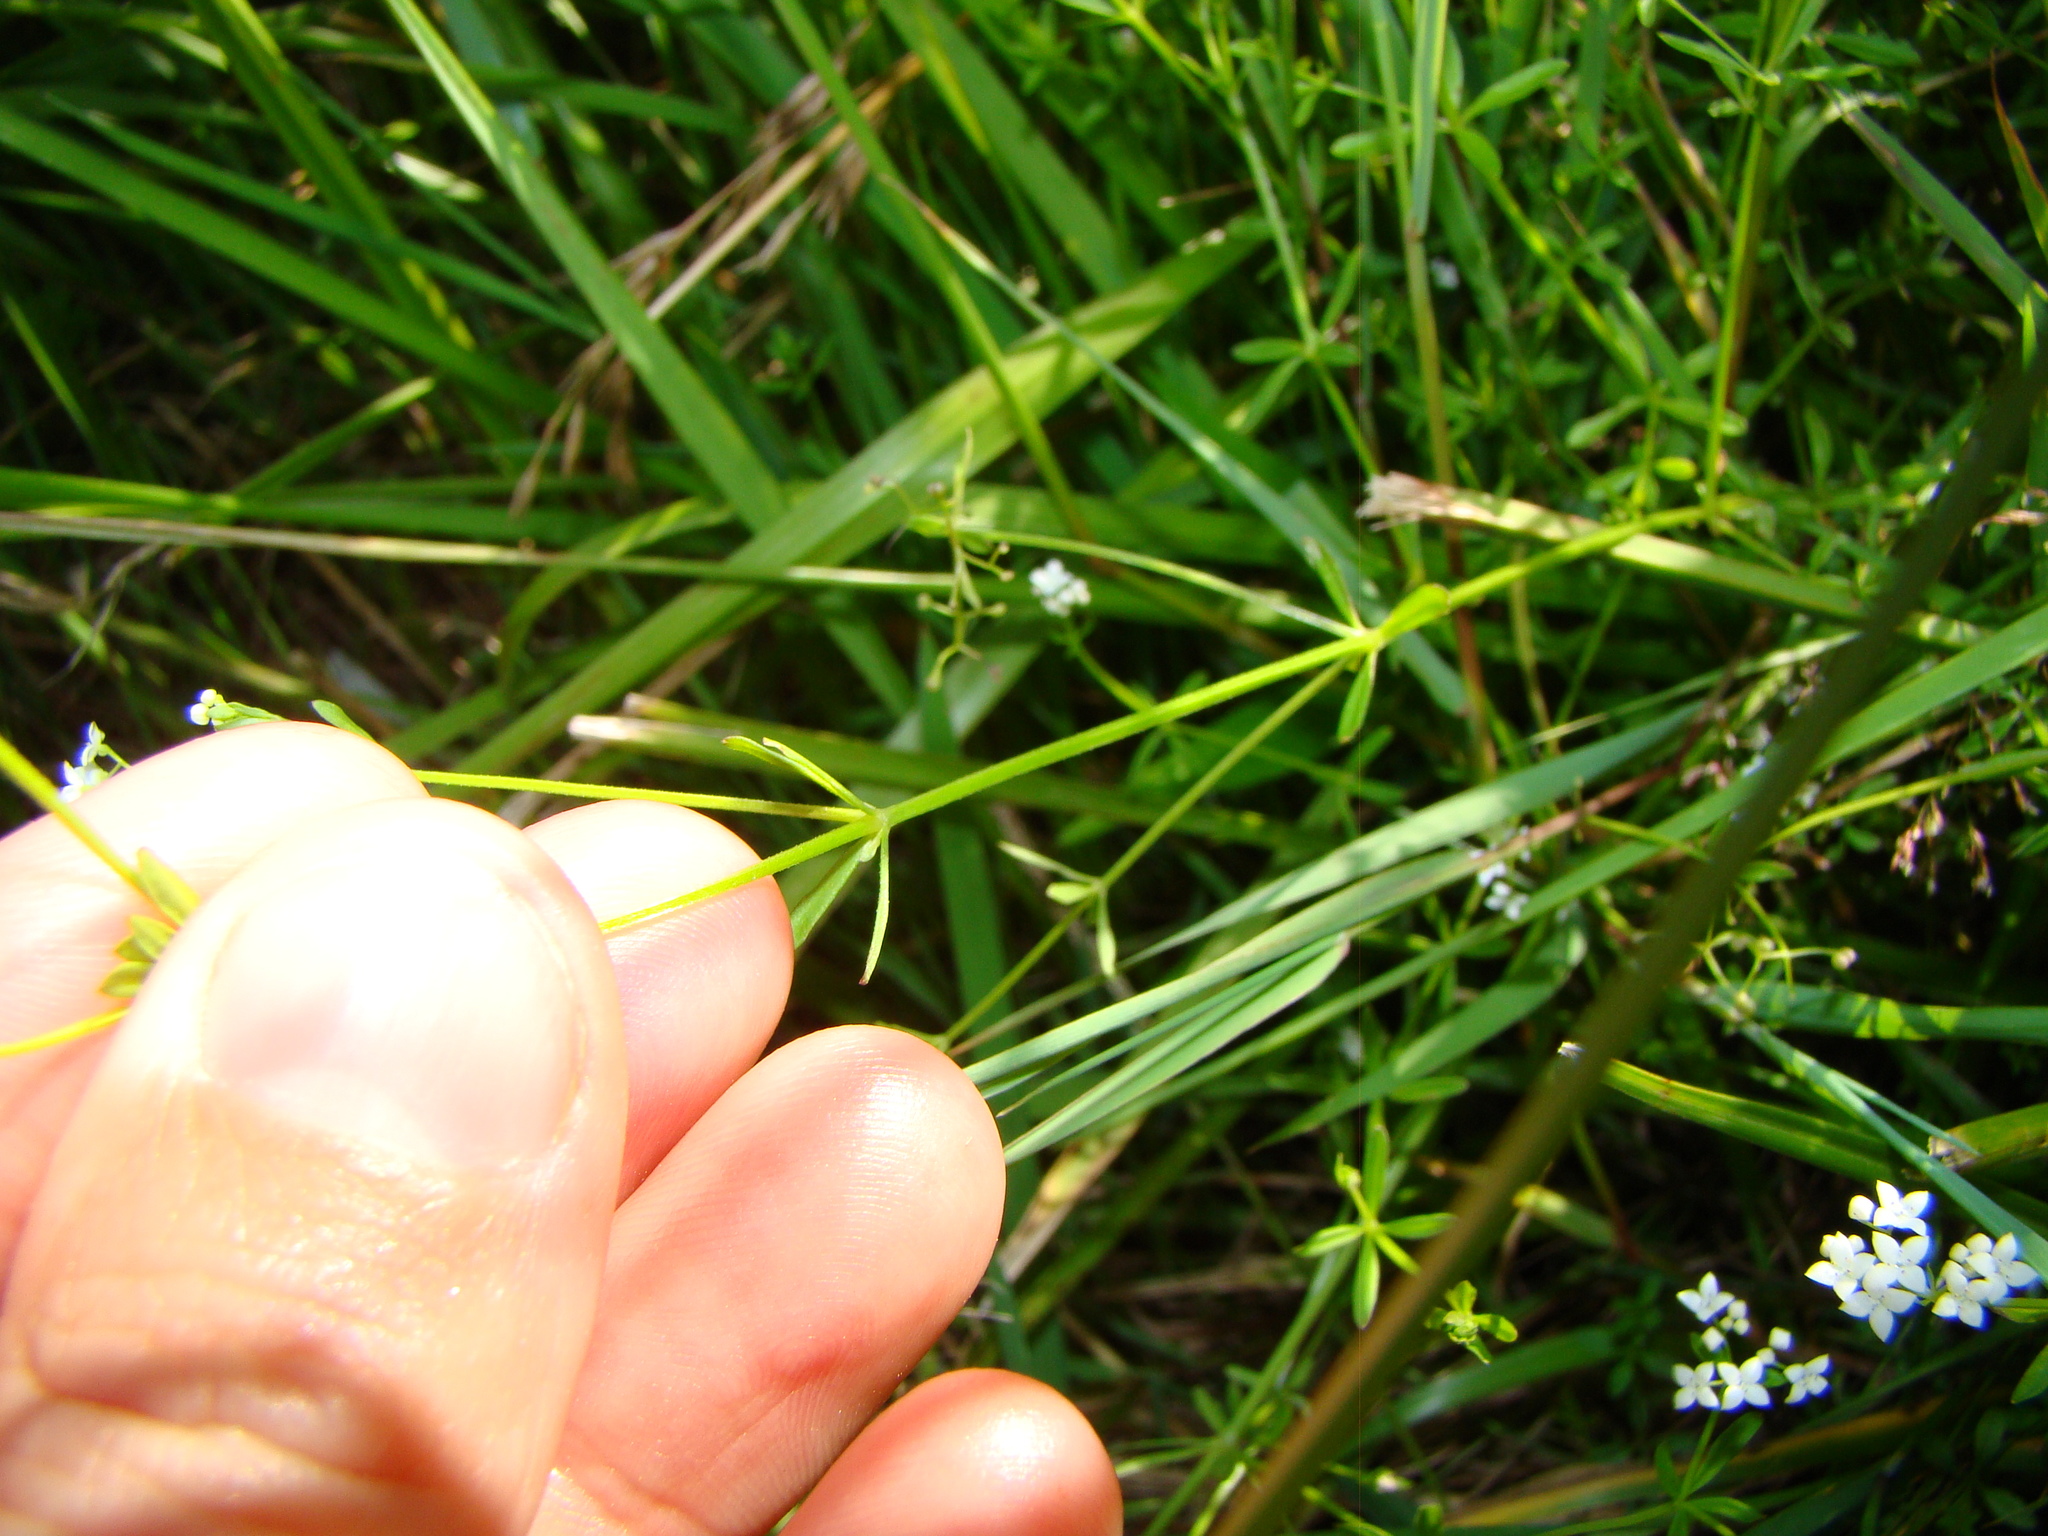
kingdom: Plantae
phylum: Tracheophyta
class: Magnoliopsida
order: Gentianales
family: Rubiaceae
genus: Galium
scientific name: Galium palustre
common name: Common marsh-bedstraw
